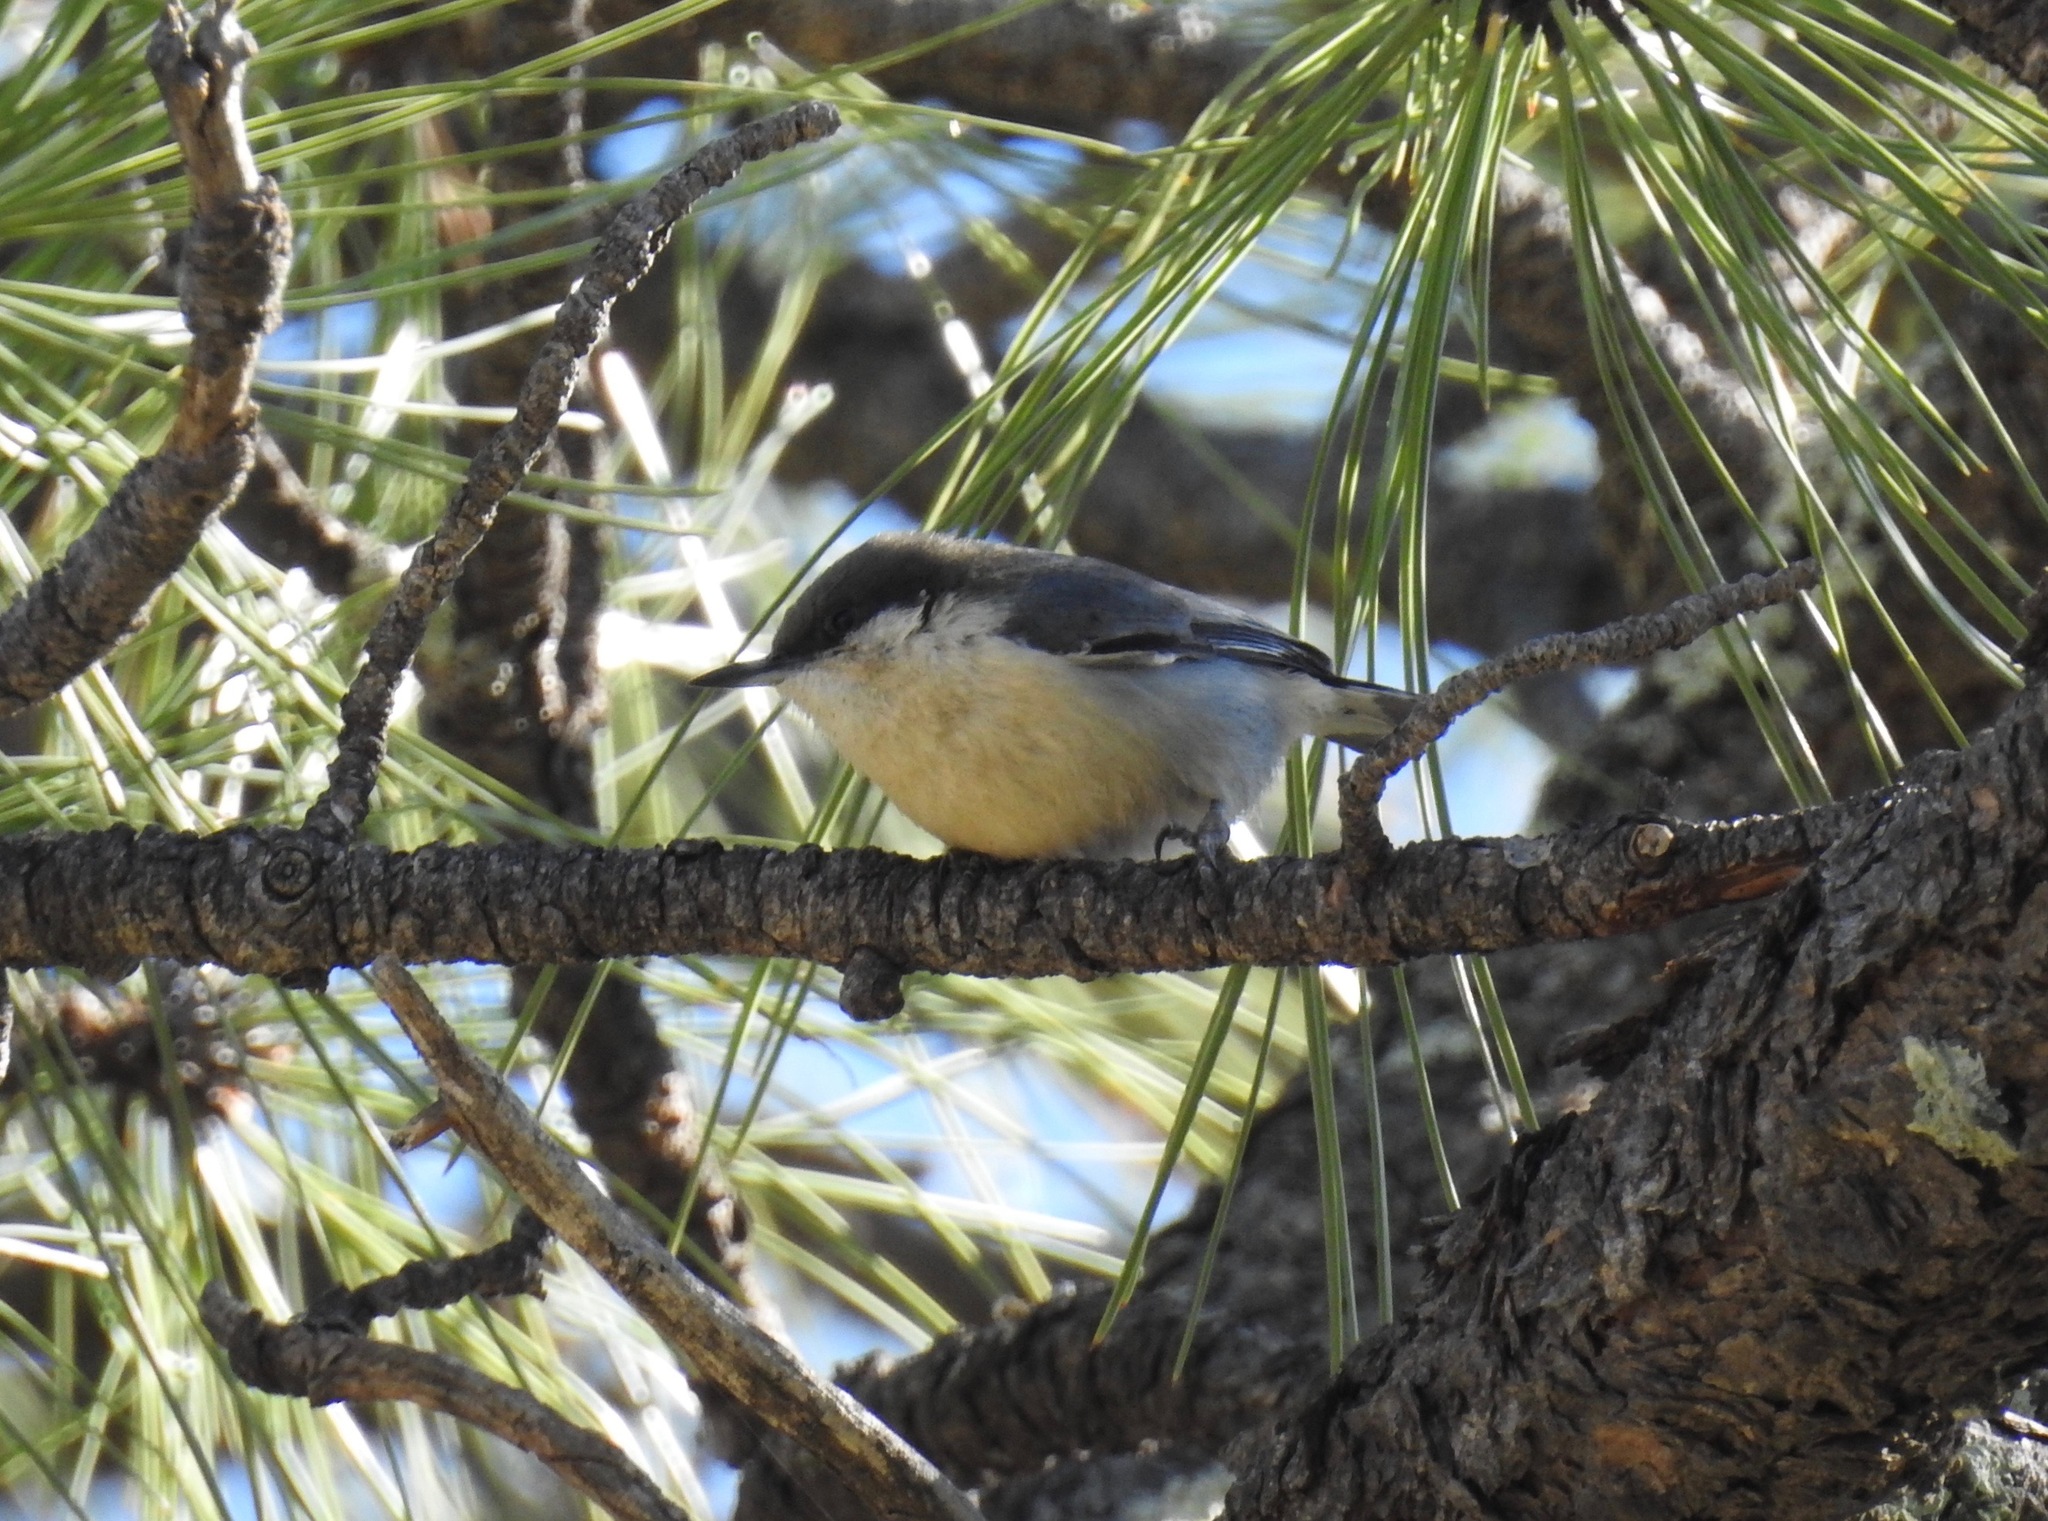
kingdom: Animalia
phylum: Chordata
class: Aves
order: Passeriformes
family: Sittidae
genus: Sitta
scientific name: Sitta pygmaea
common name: Pygmy nuthatch
